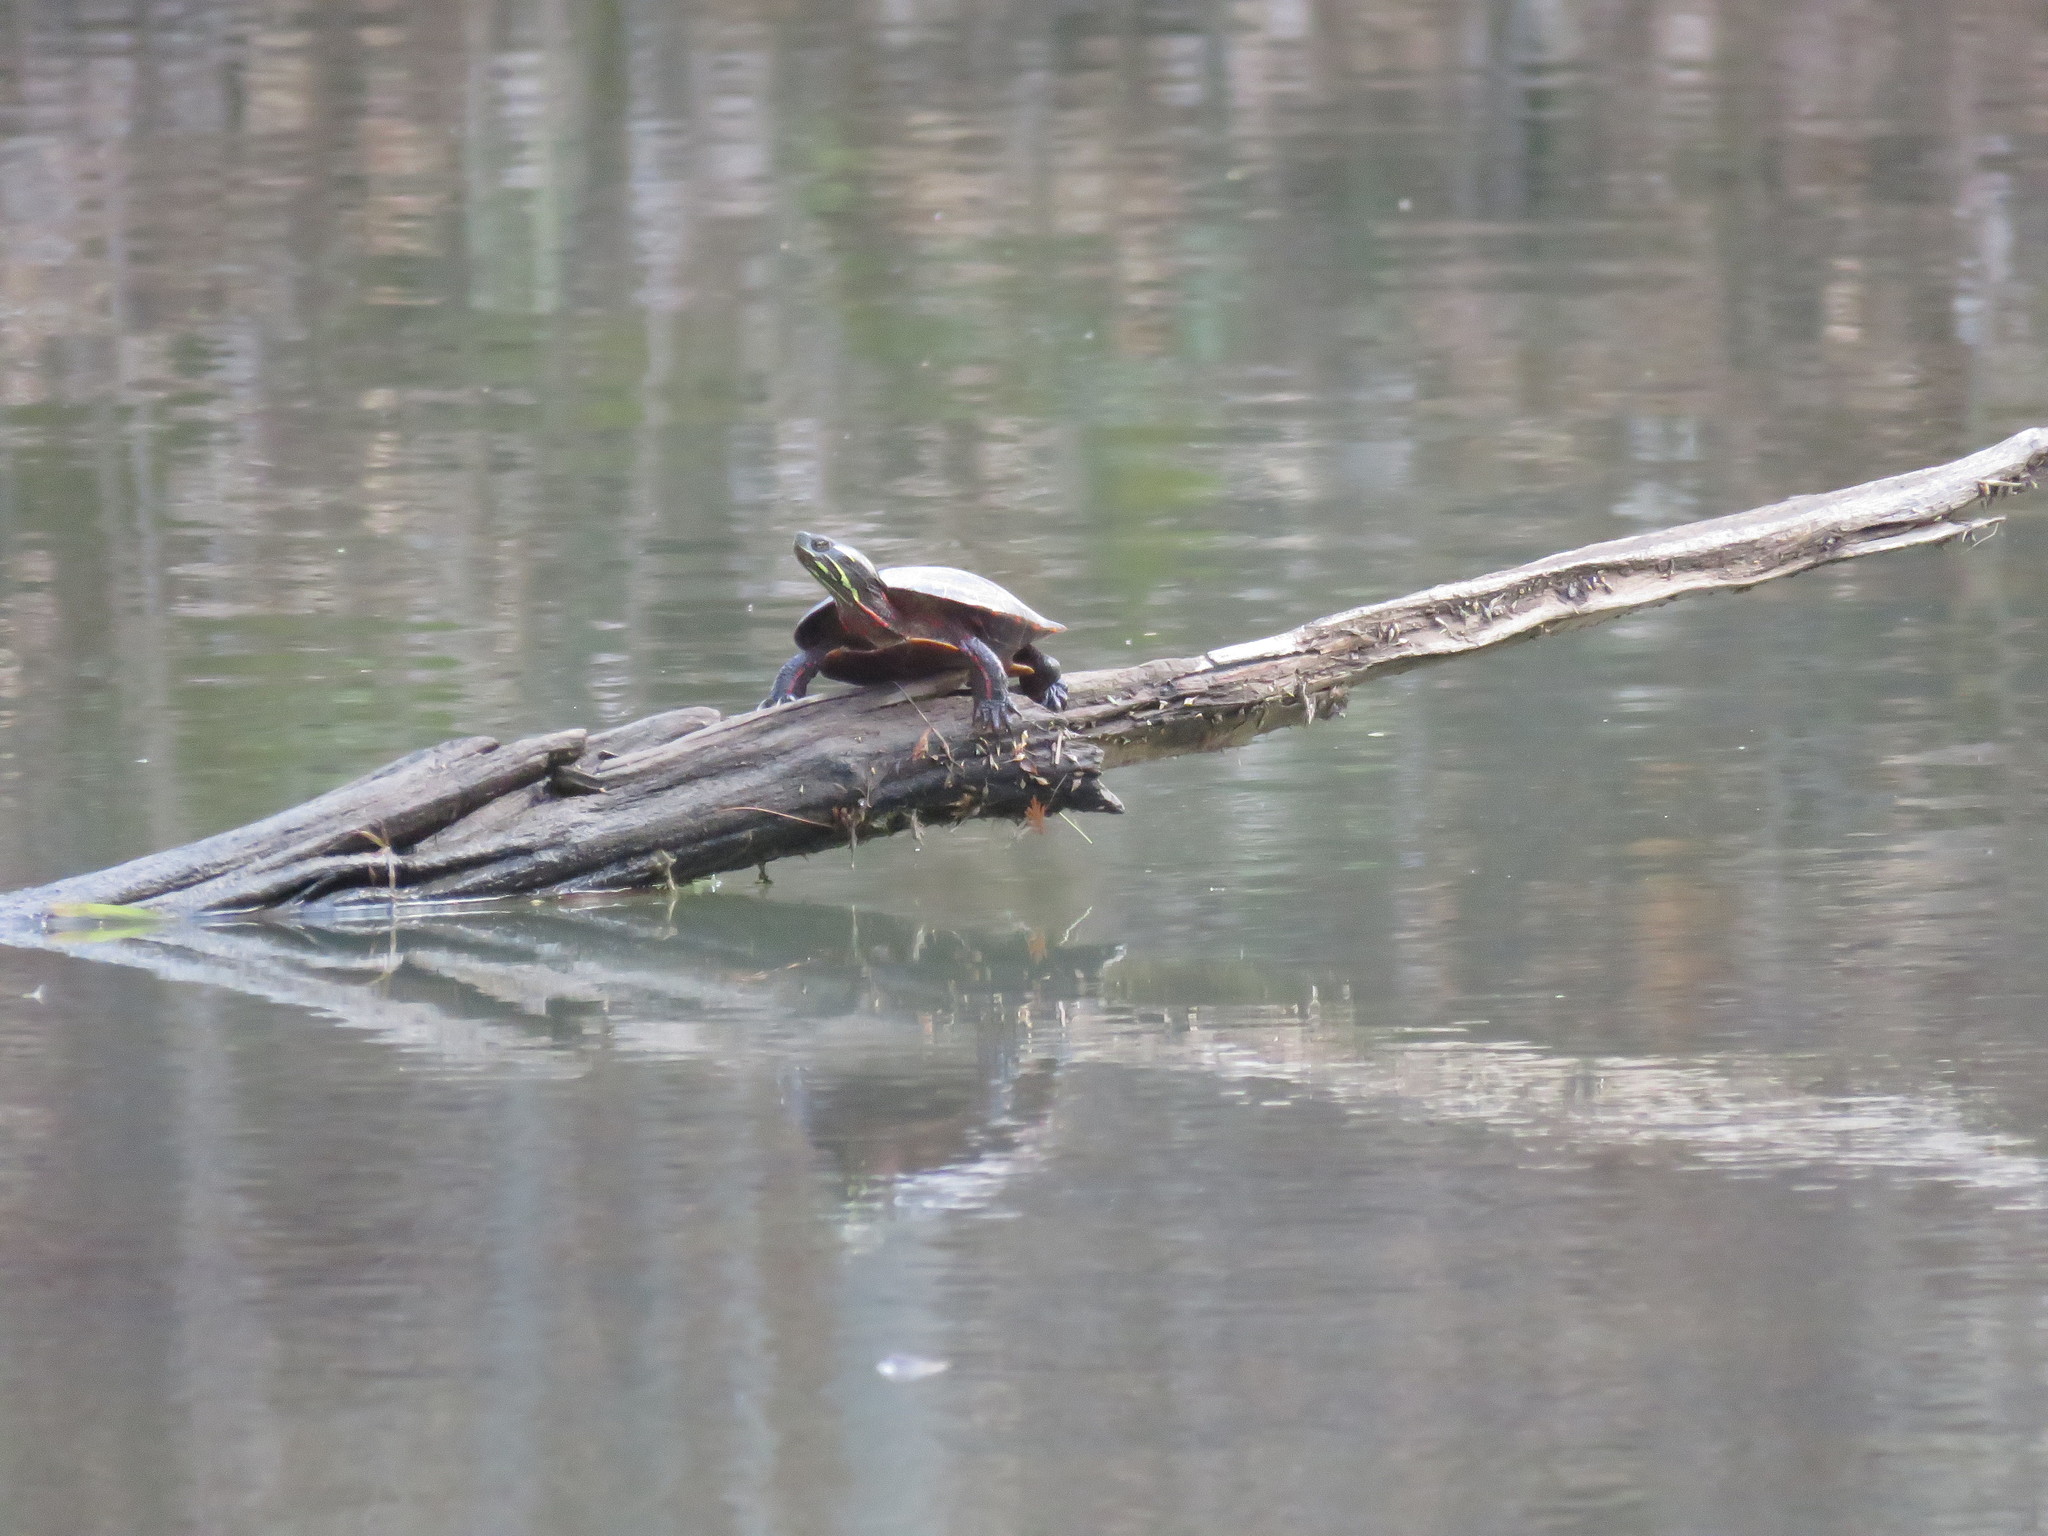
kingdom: Animalia
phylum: Chordata
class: Testudines
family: Emydidae
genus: Chrysemys
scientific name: Chrysemys picta
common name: Painted turtle
